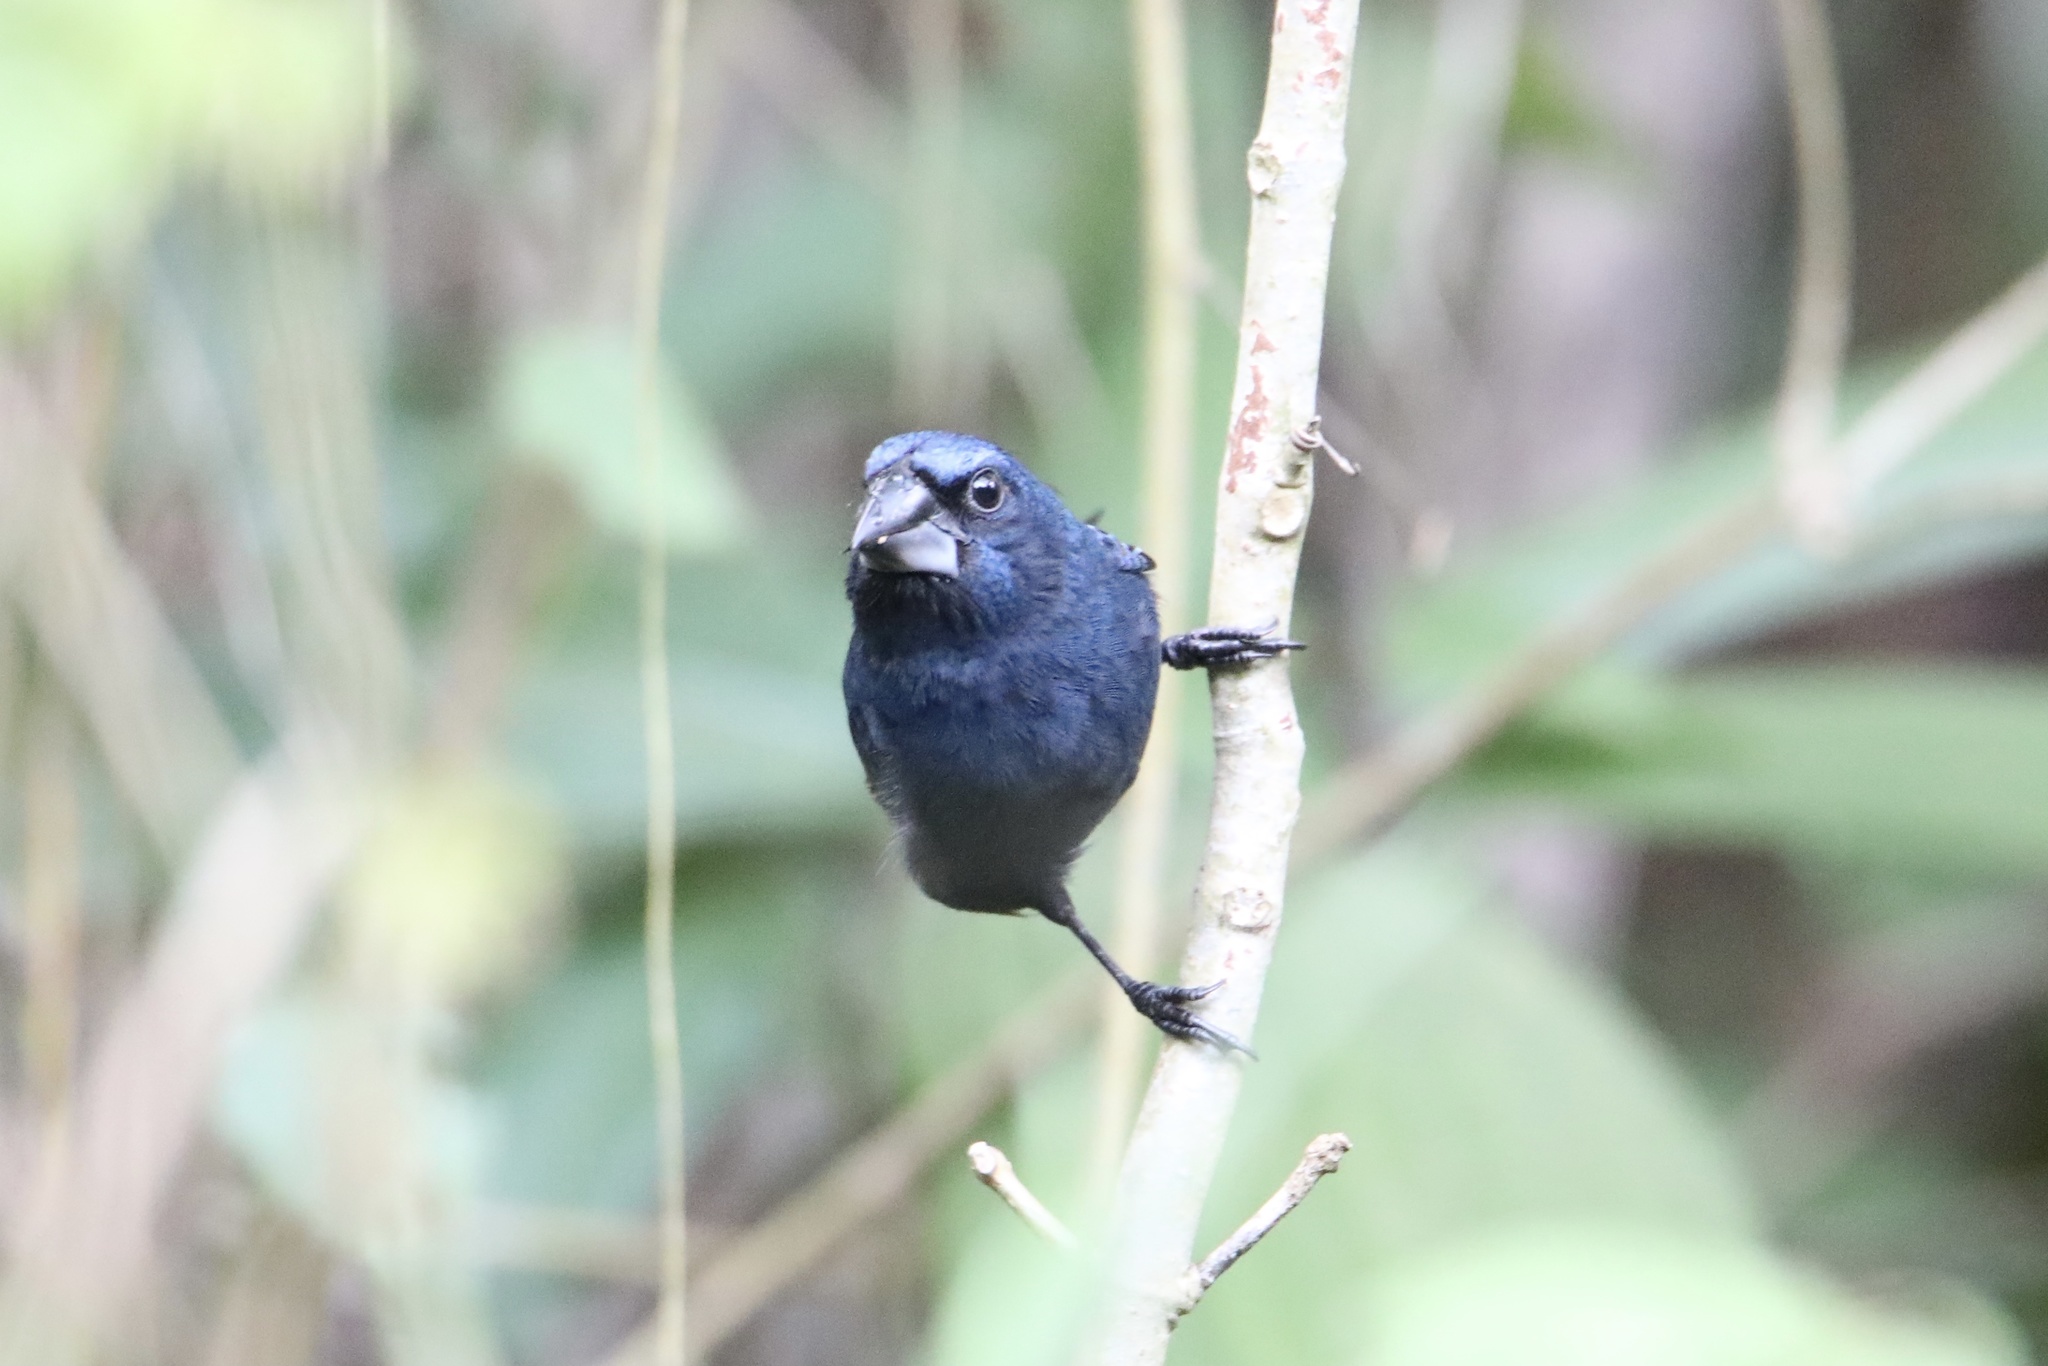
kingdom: Animalia
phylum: Chordata
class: Aves
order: Passeriformes
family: Cardinalidae
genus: Cyanocompsa
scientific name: Cyanocompsa cyanoides
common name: Blue-black grosbeak
